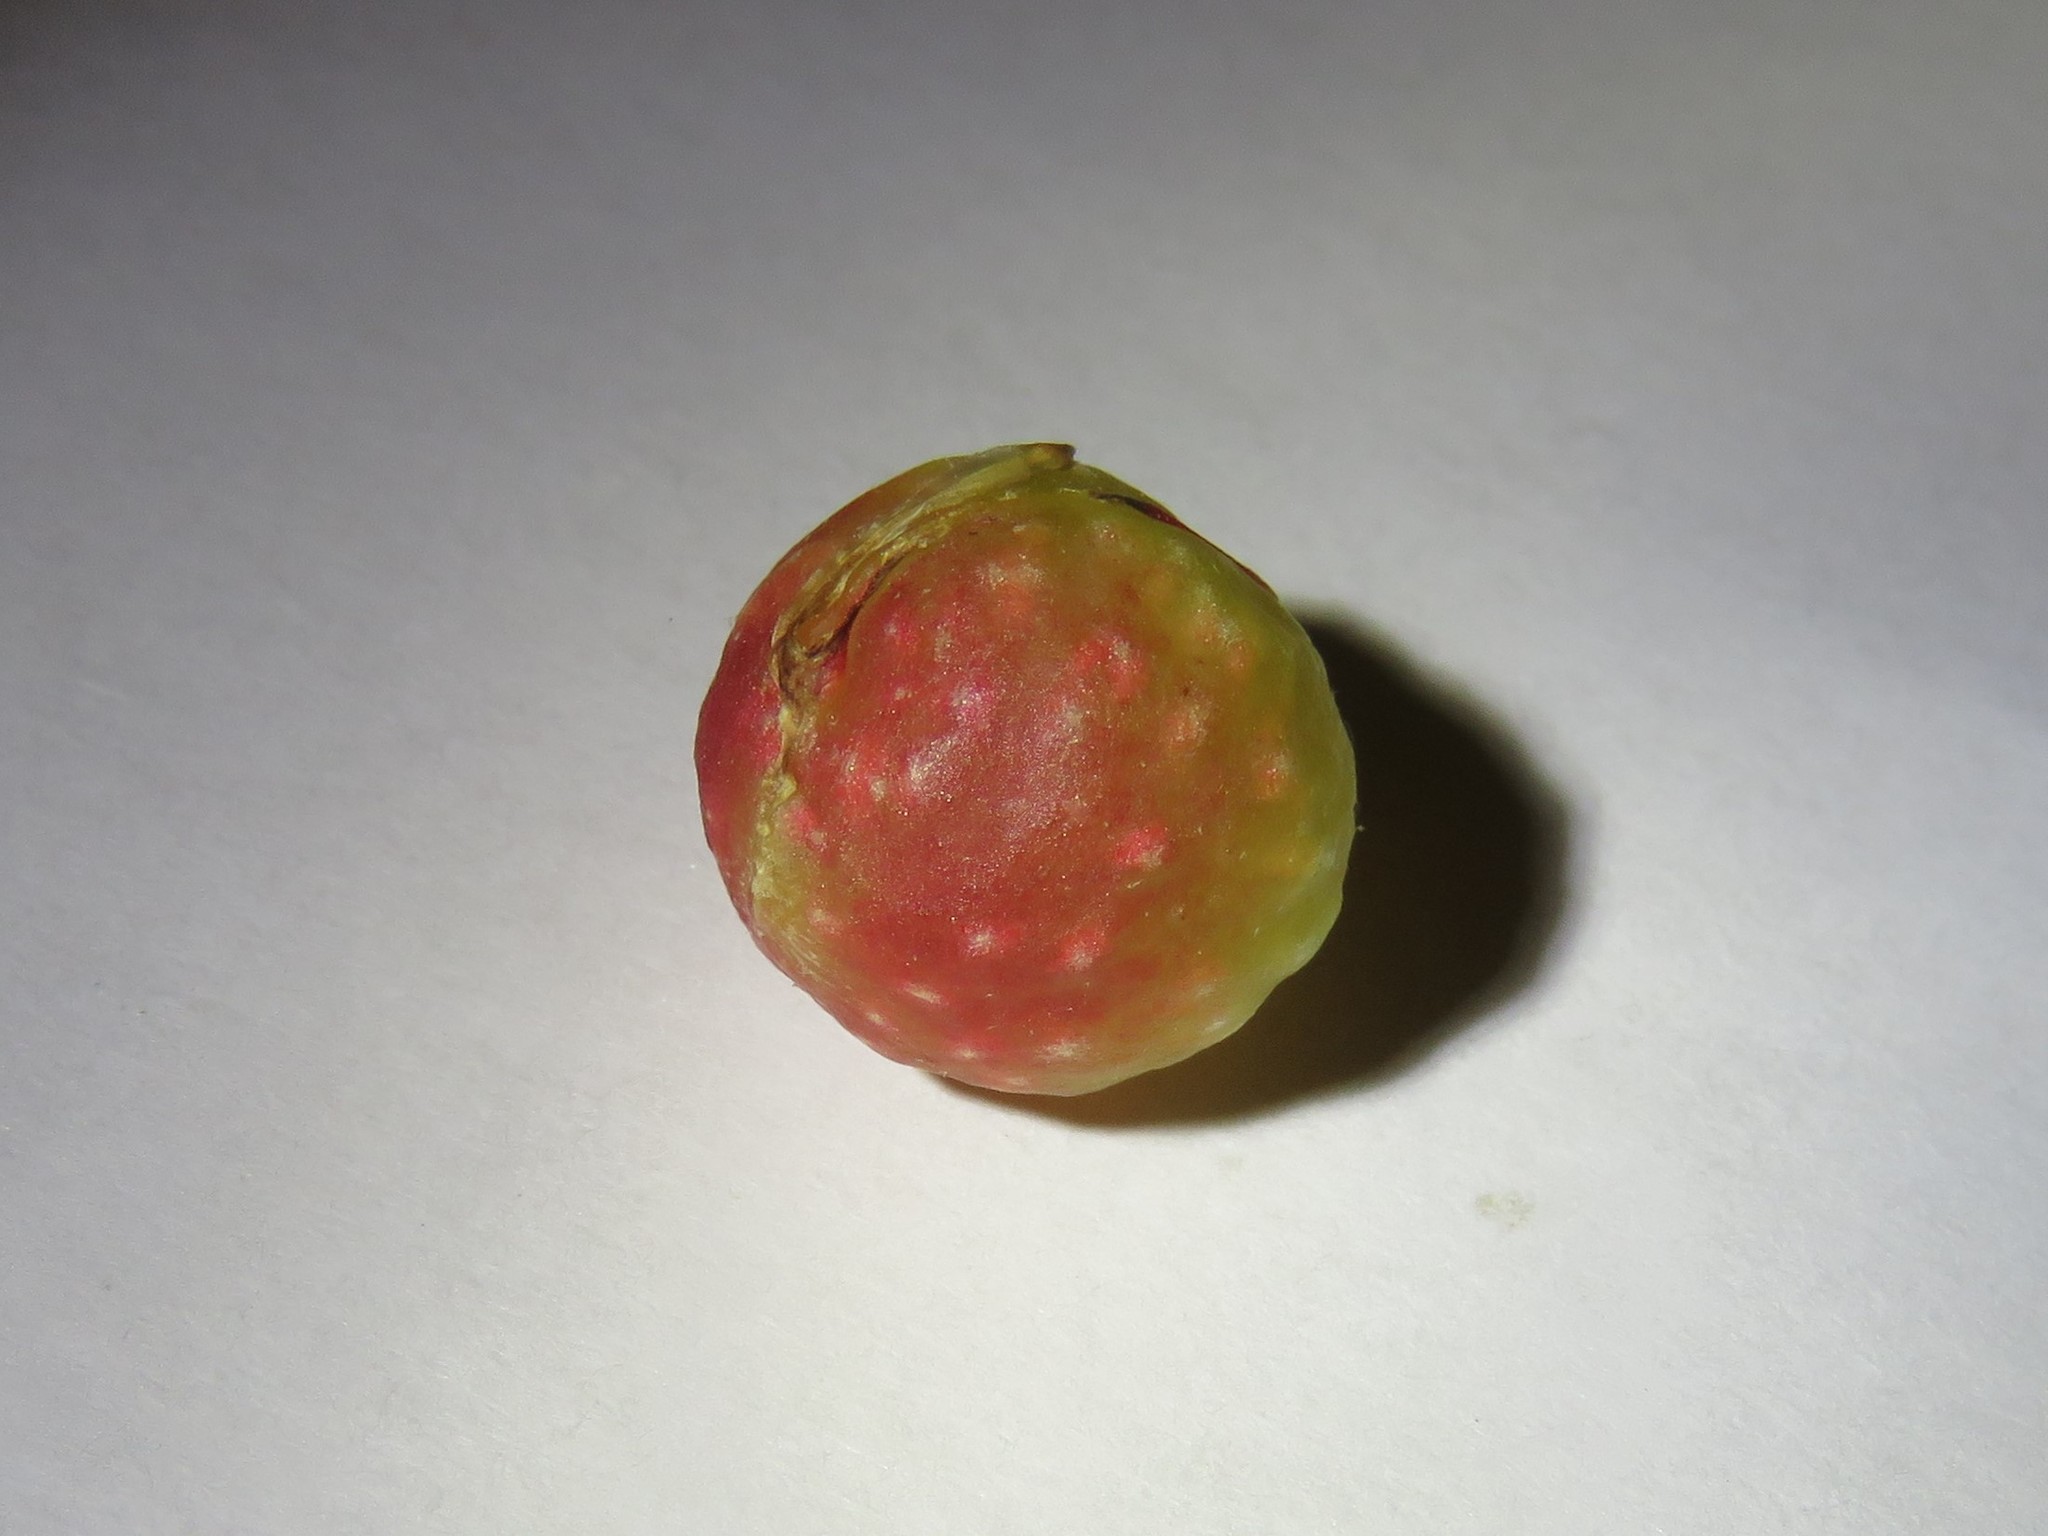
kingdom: Animalia
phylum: Arthropoda
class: Insecta
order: Hymenoptera
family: Cynipidae
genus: Dryocosmus
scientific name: Dryocosmus quercuspalustris
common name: Succulent oak gall wasp
